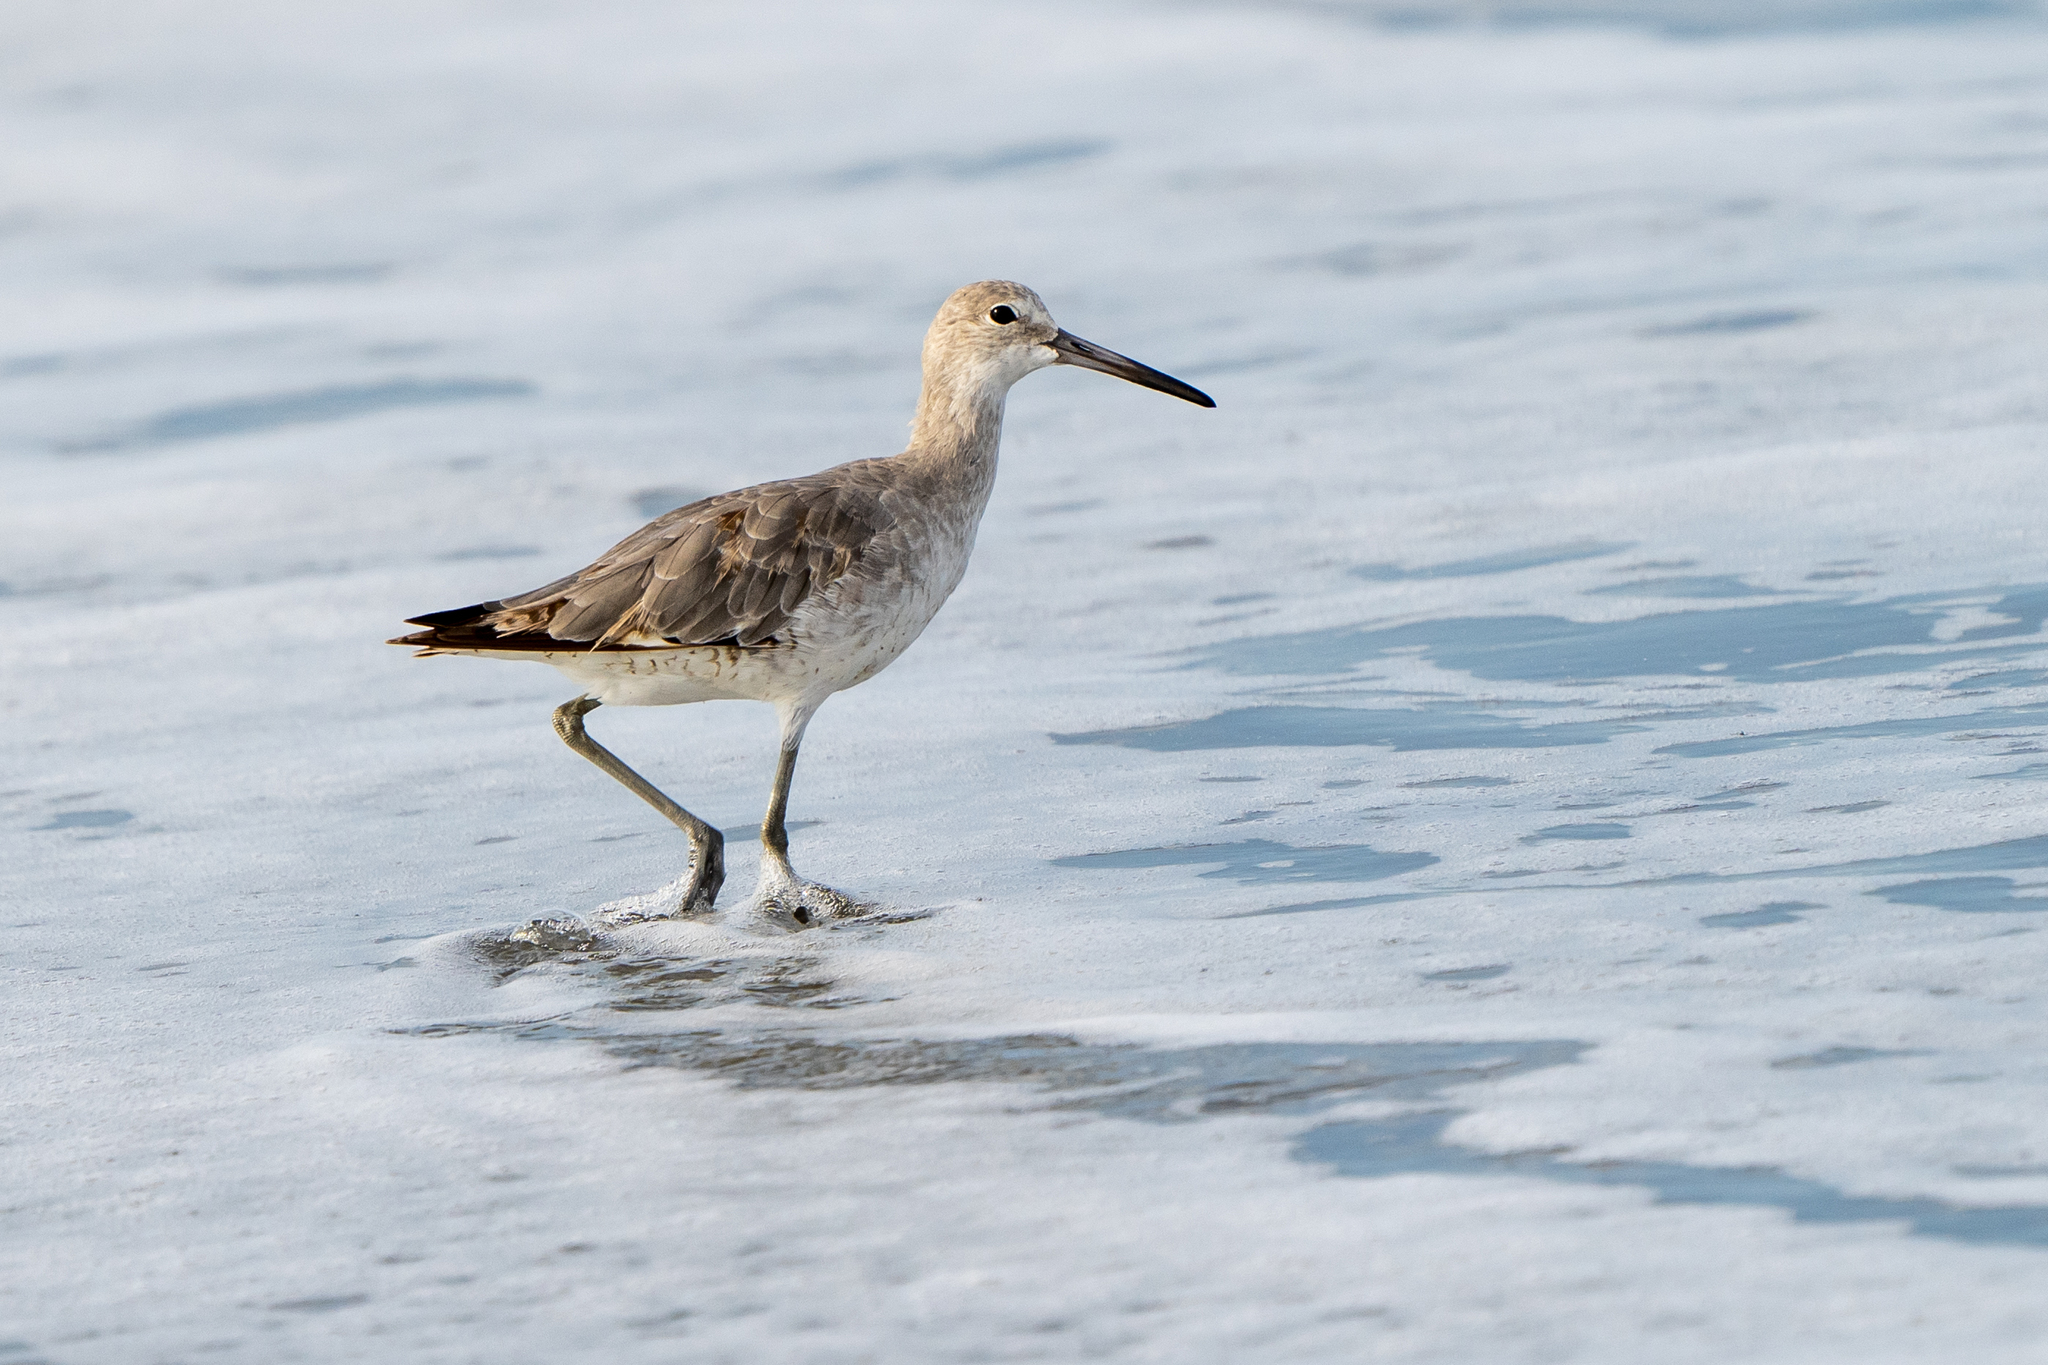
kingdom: Animalia
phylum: Chordata
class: Aves
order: Charadriiformes
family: Scolopacidae
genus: Tringa
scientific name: Tringa semipalmata
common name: Willet
